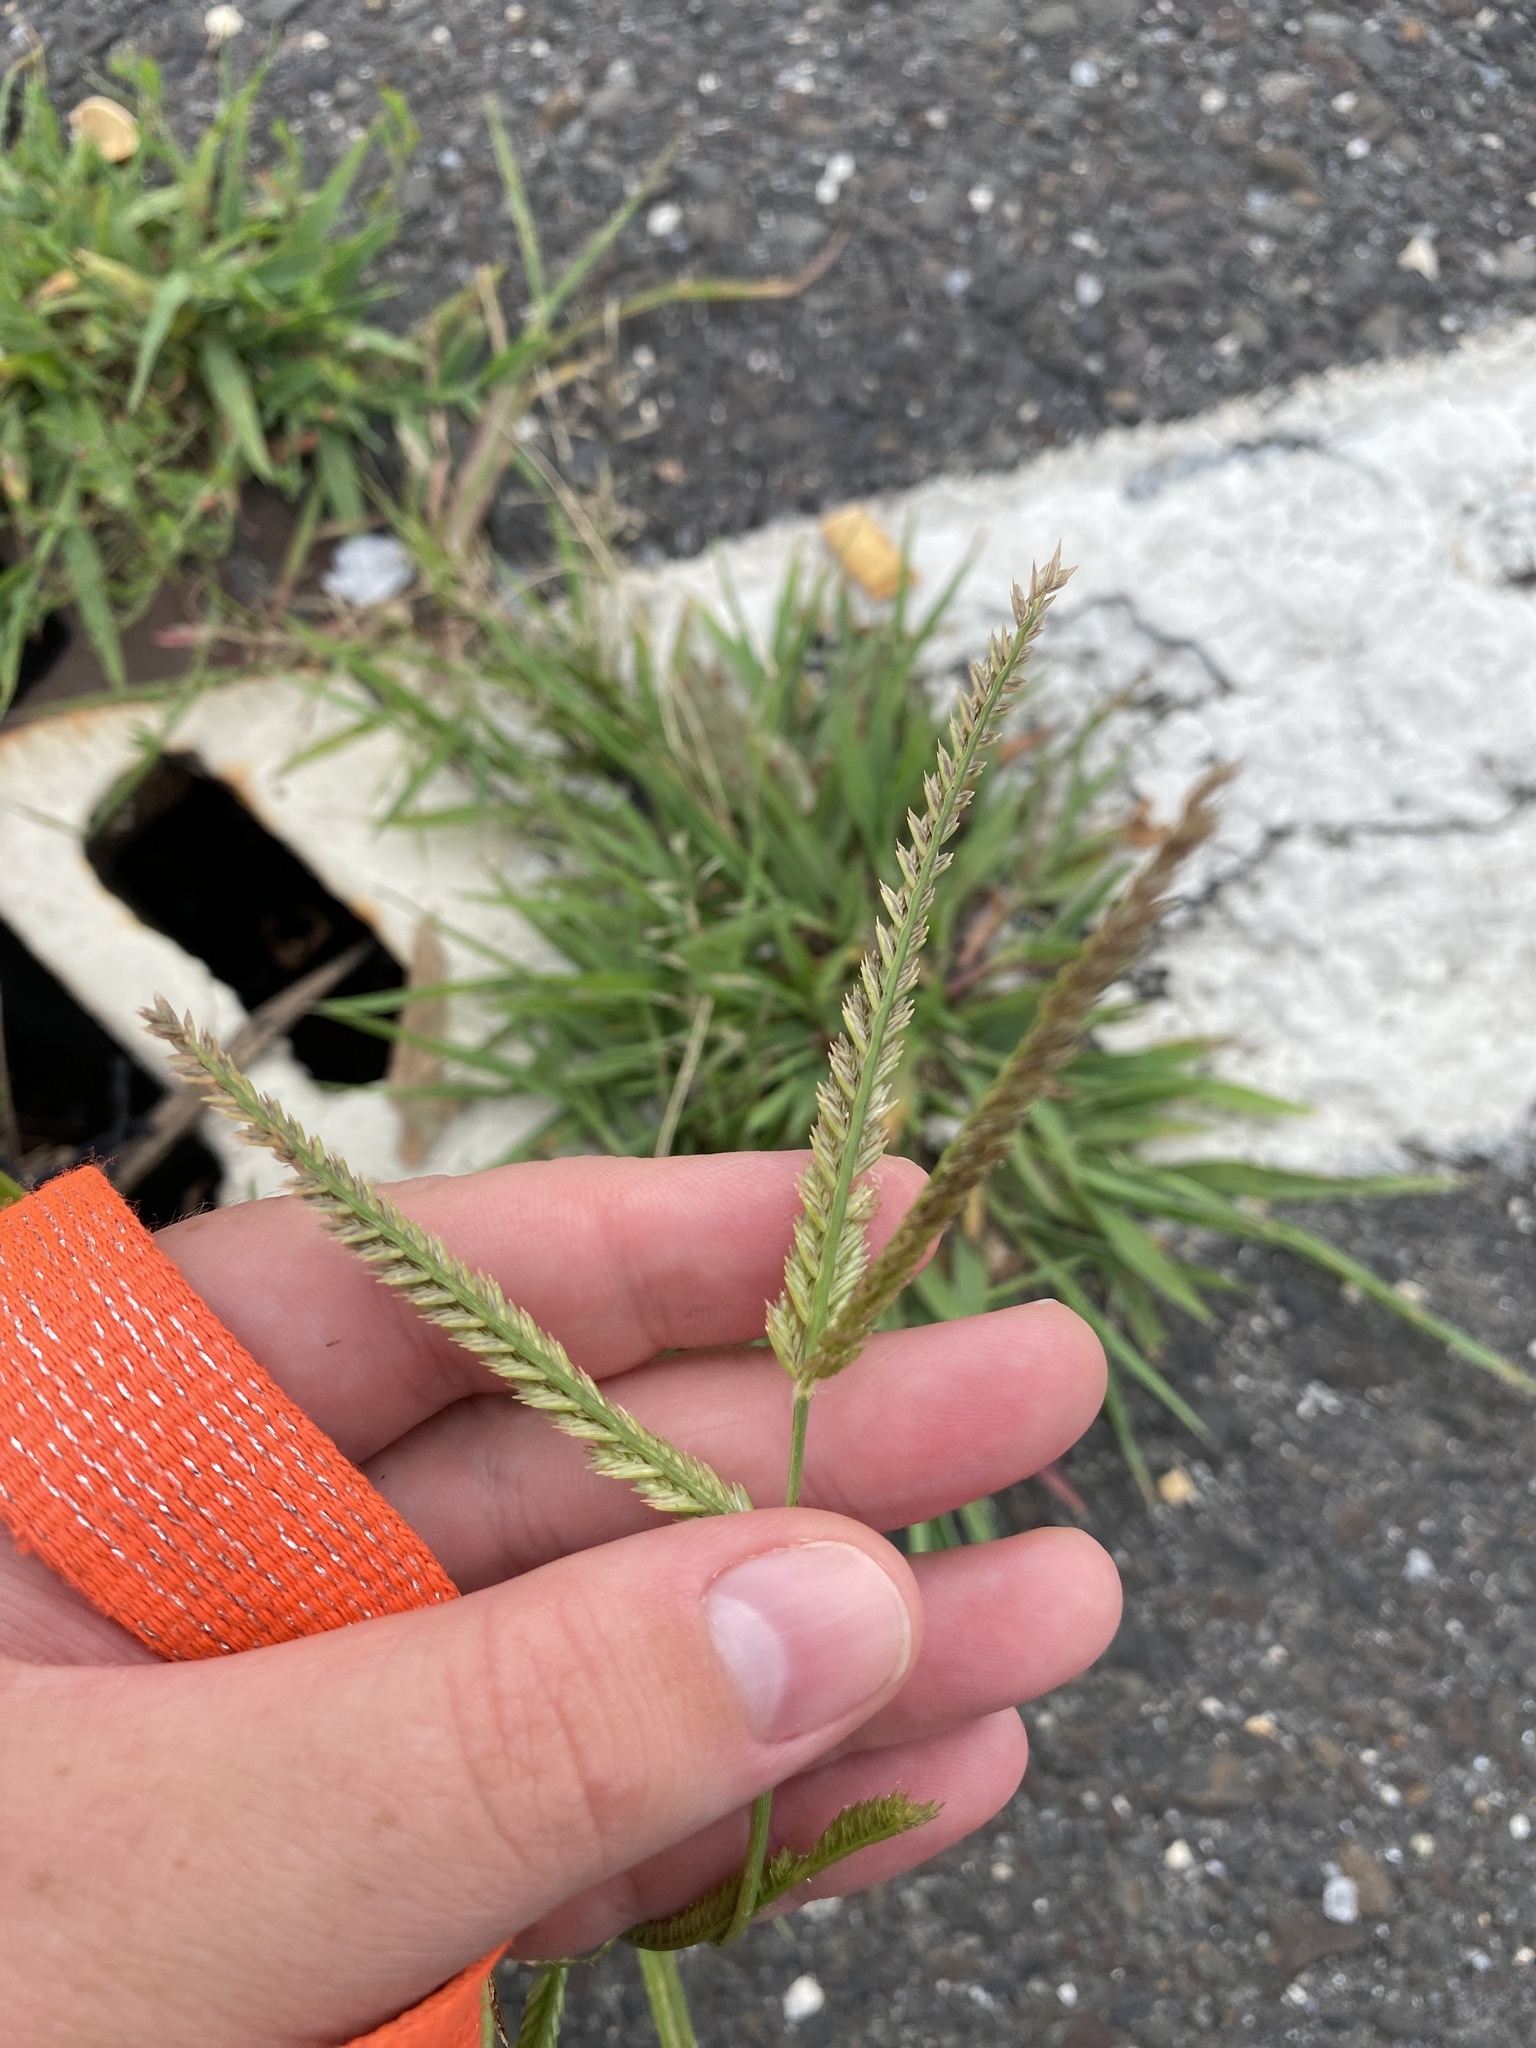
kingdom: Plantae
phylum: Tracheophyta
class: Liliopsida
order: Poales
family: Poaceae
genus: Eleusine
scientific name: Eleusine indica
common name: Yard-grass
